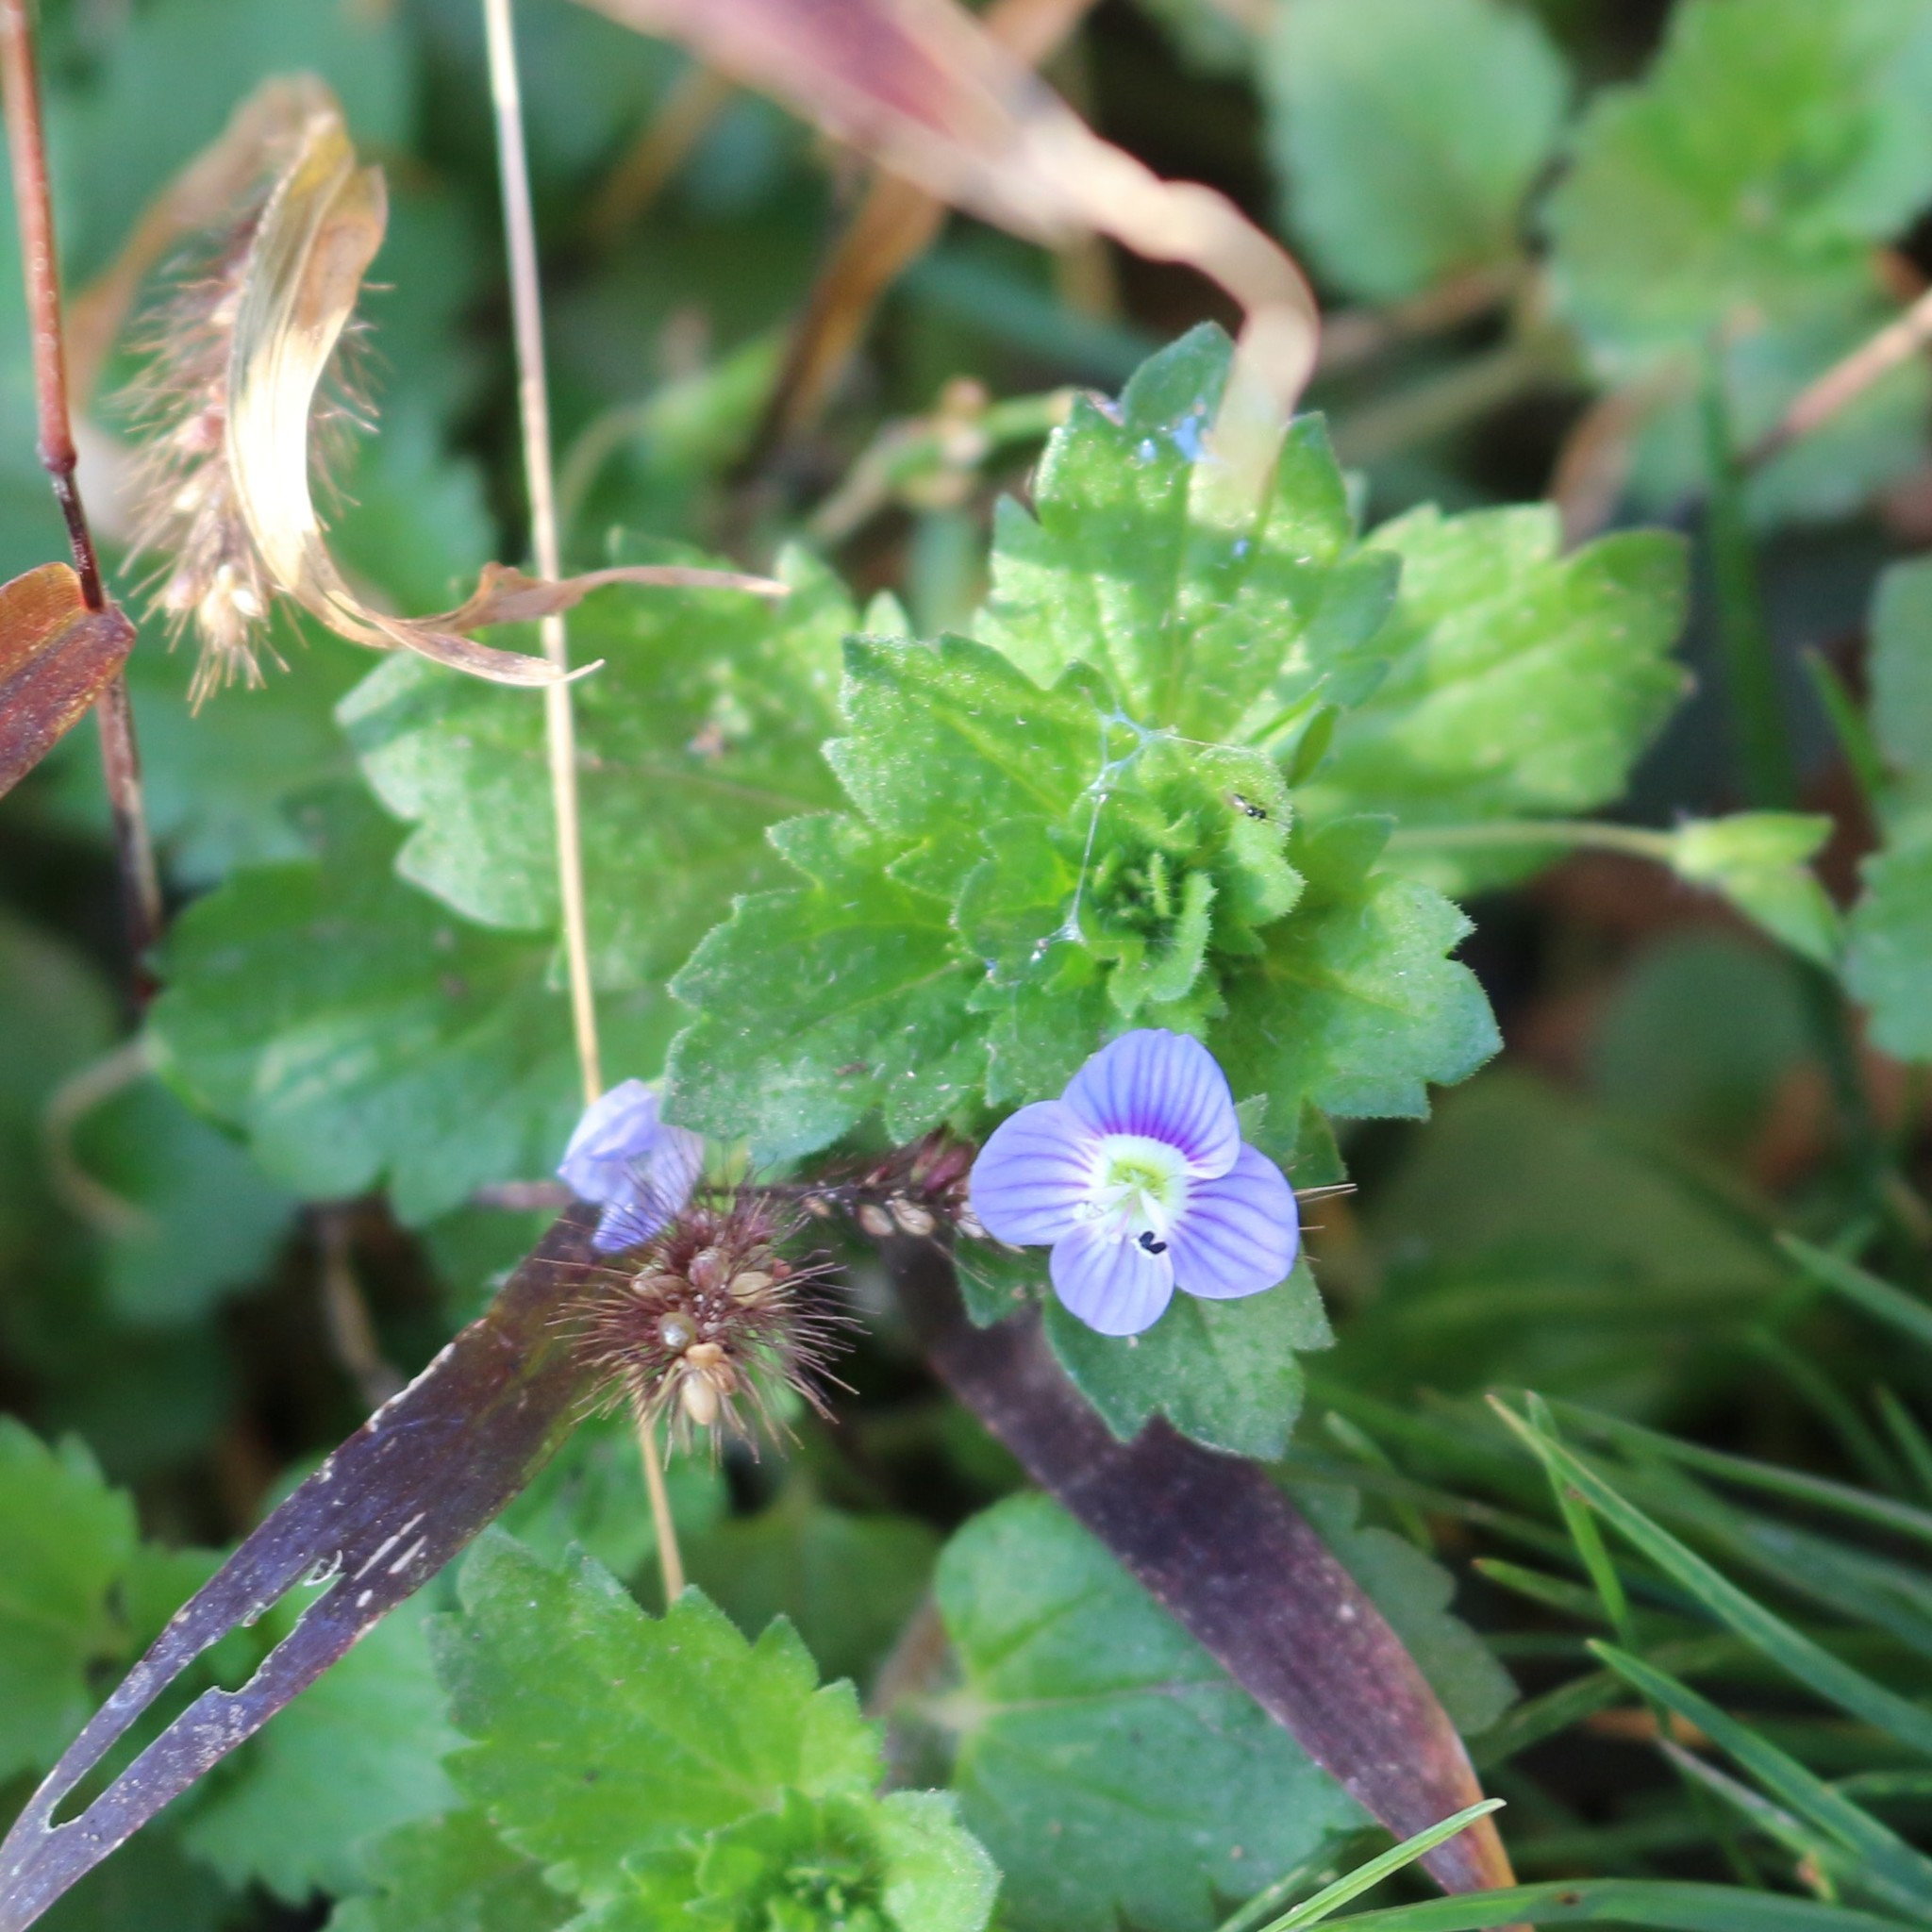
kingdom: Plantae
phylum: Tracheophyta
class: Magnoliopsida
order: Lamiales
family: Plantaginaceae
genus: Veronica
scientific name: Veronica persica
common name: Common field-speedwell
